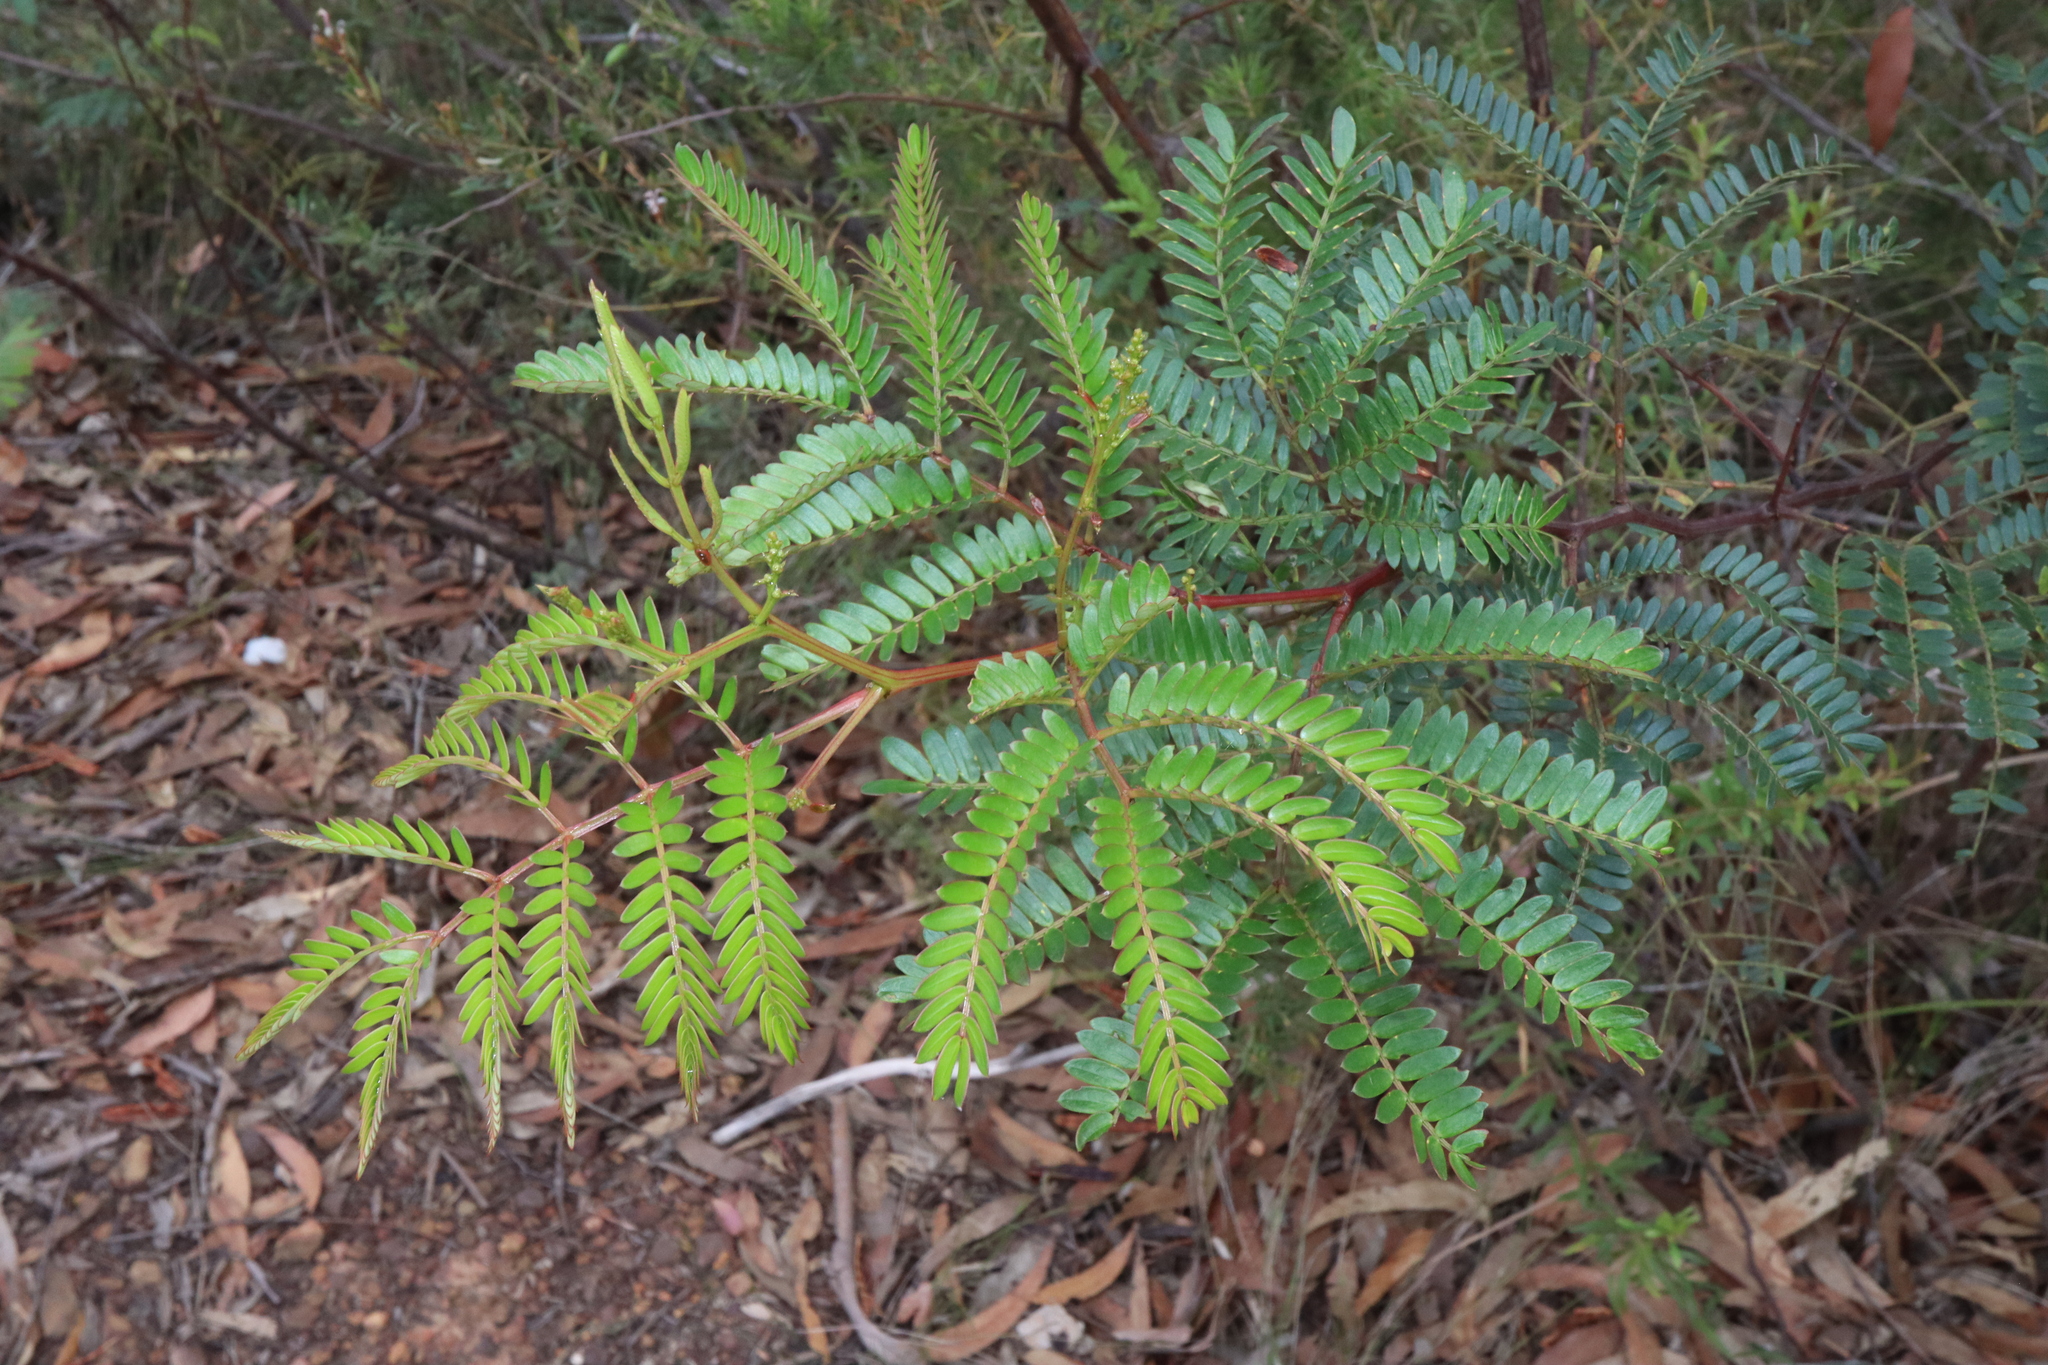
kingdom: Plantae
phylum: Tracheophyta
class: Magnoliopsida
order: Fabales
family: Fabaceae
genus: Acacia
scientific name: Acacia terminalis
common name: Cedar wattle
